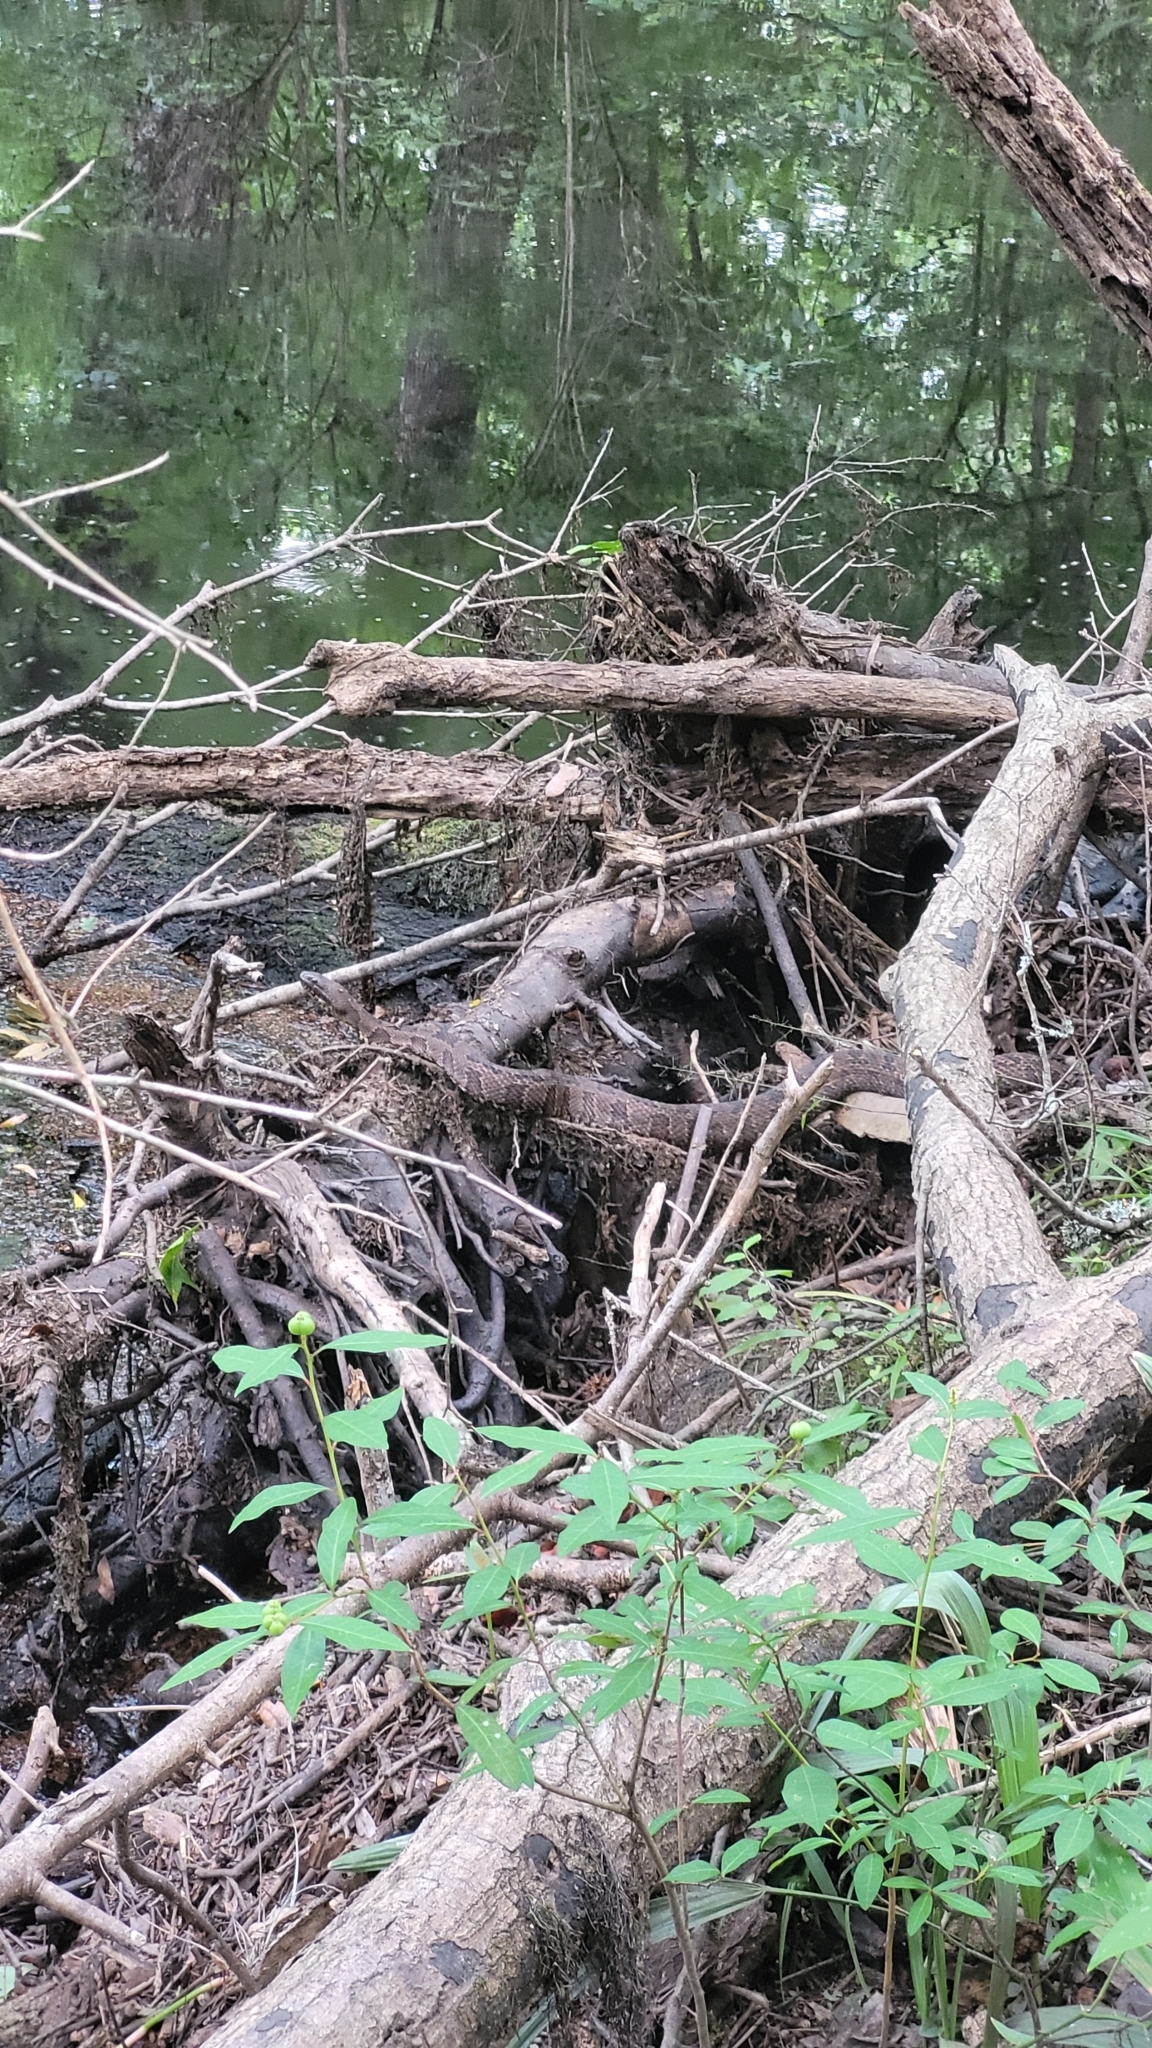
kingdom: Animalia
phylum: Chordata
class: Squamata
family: Colubridae
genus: Nerodia
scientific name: Nerodia taxispilota
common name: Brown water snake
